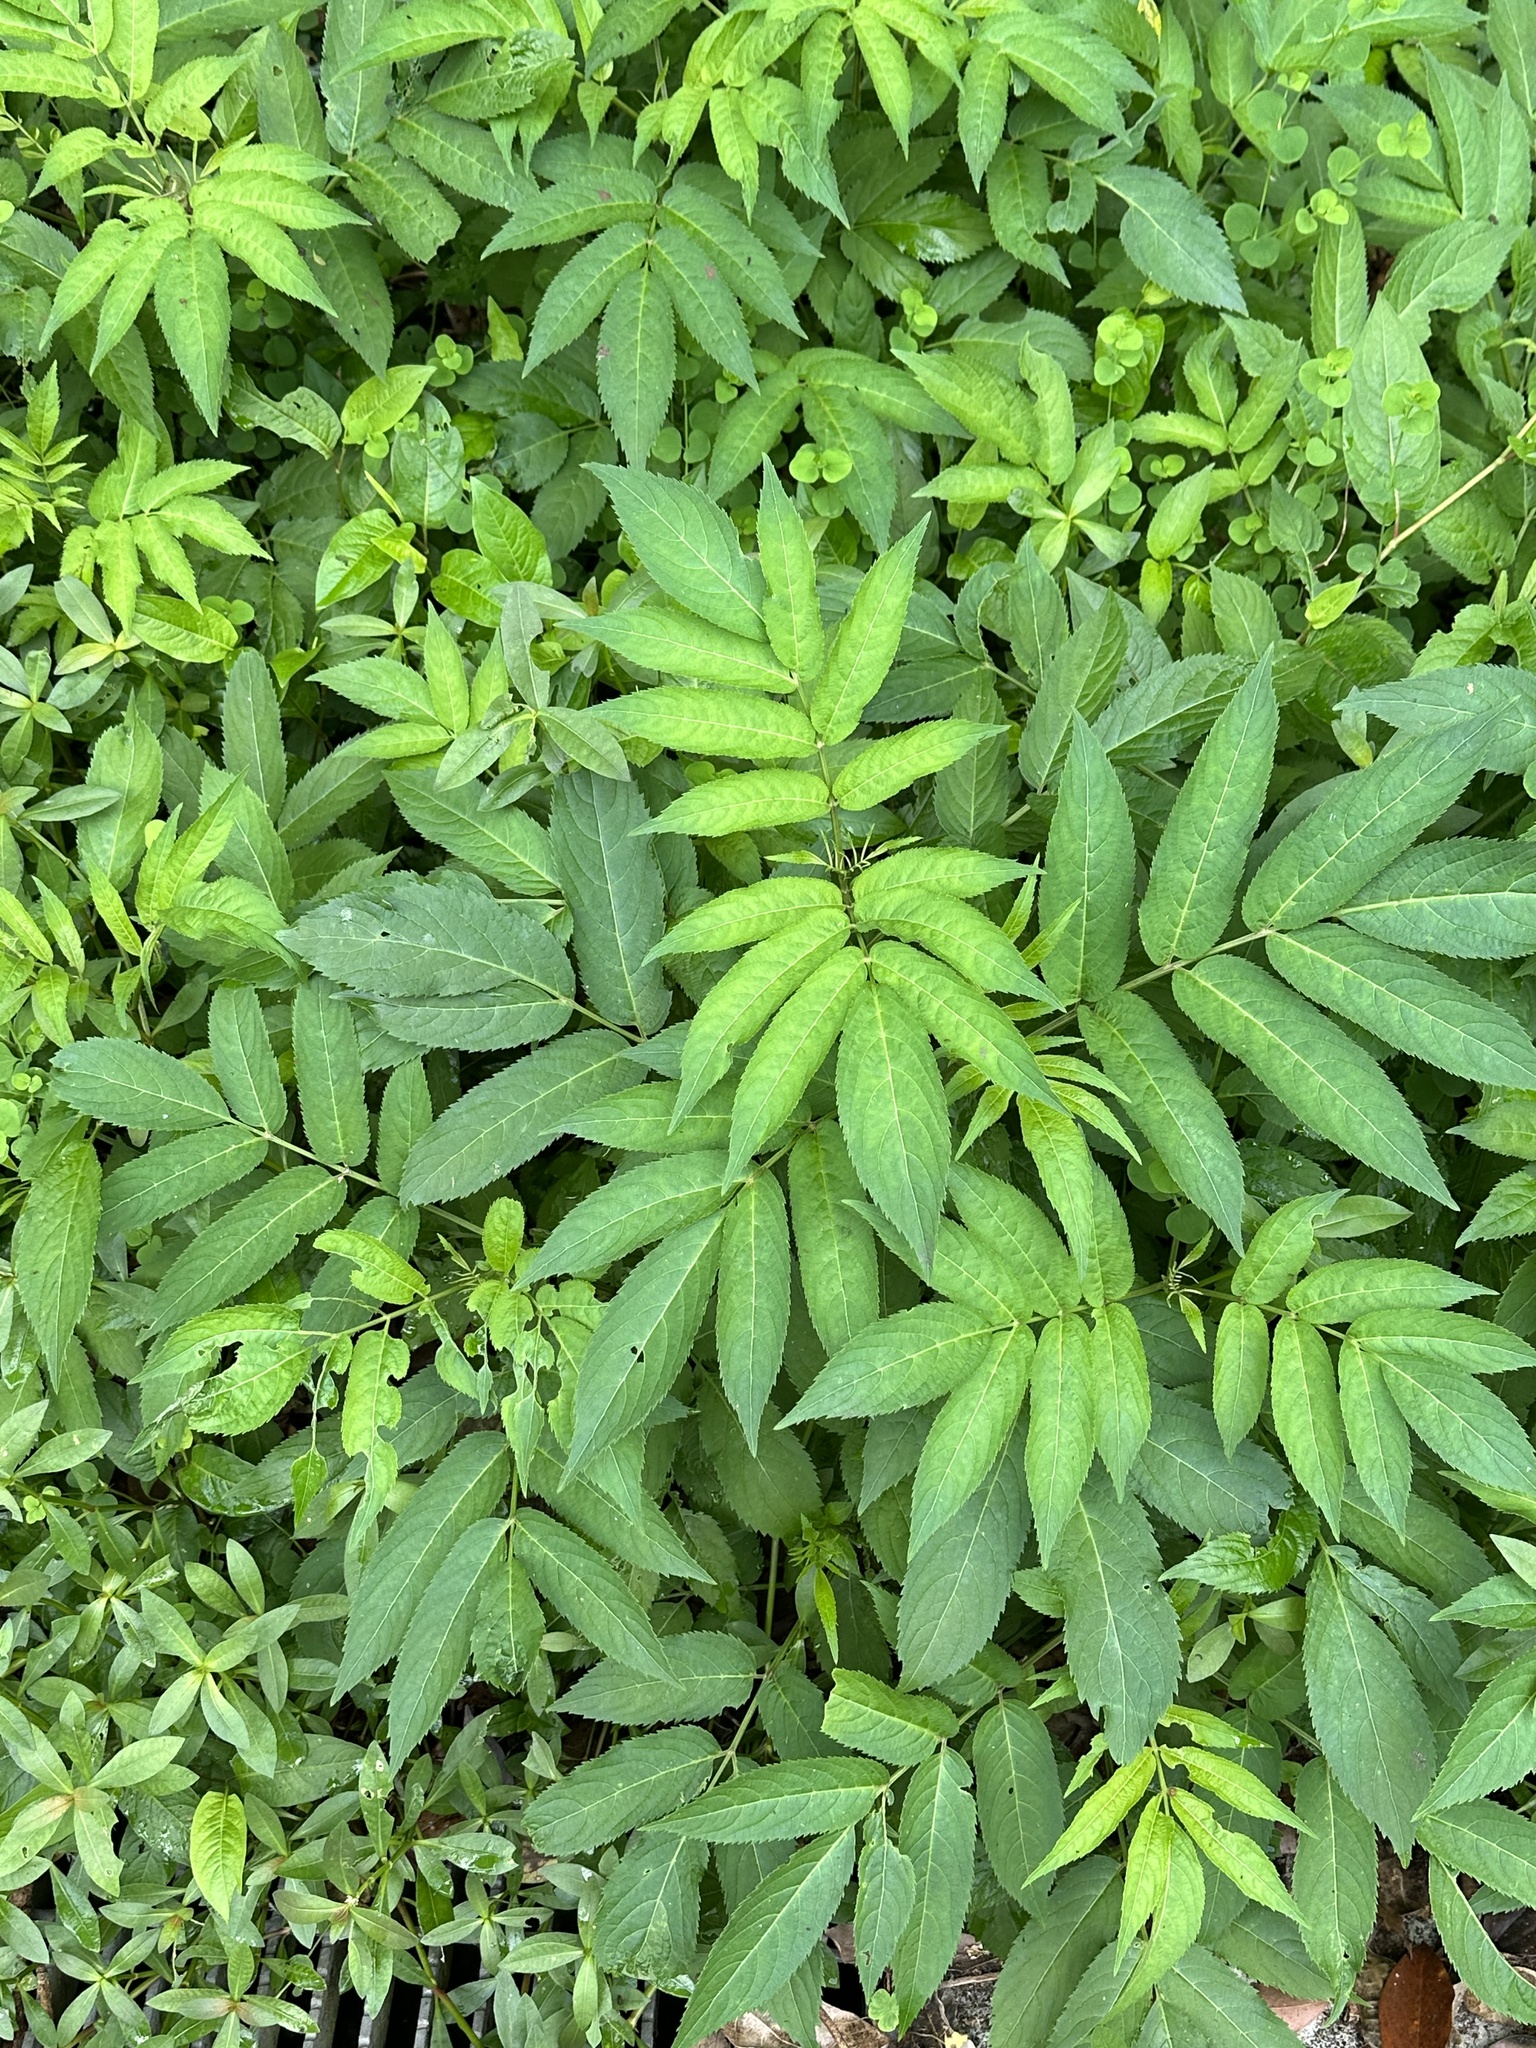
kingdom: Plantae
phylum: Tracheophyta
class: Magnoliopsida
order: Dipsacales
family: Viburnaceae
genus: Sambucus
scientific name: Sambucus javanica
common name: Chinese elder
